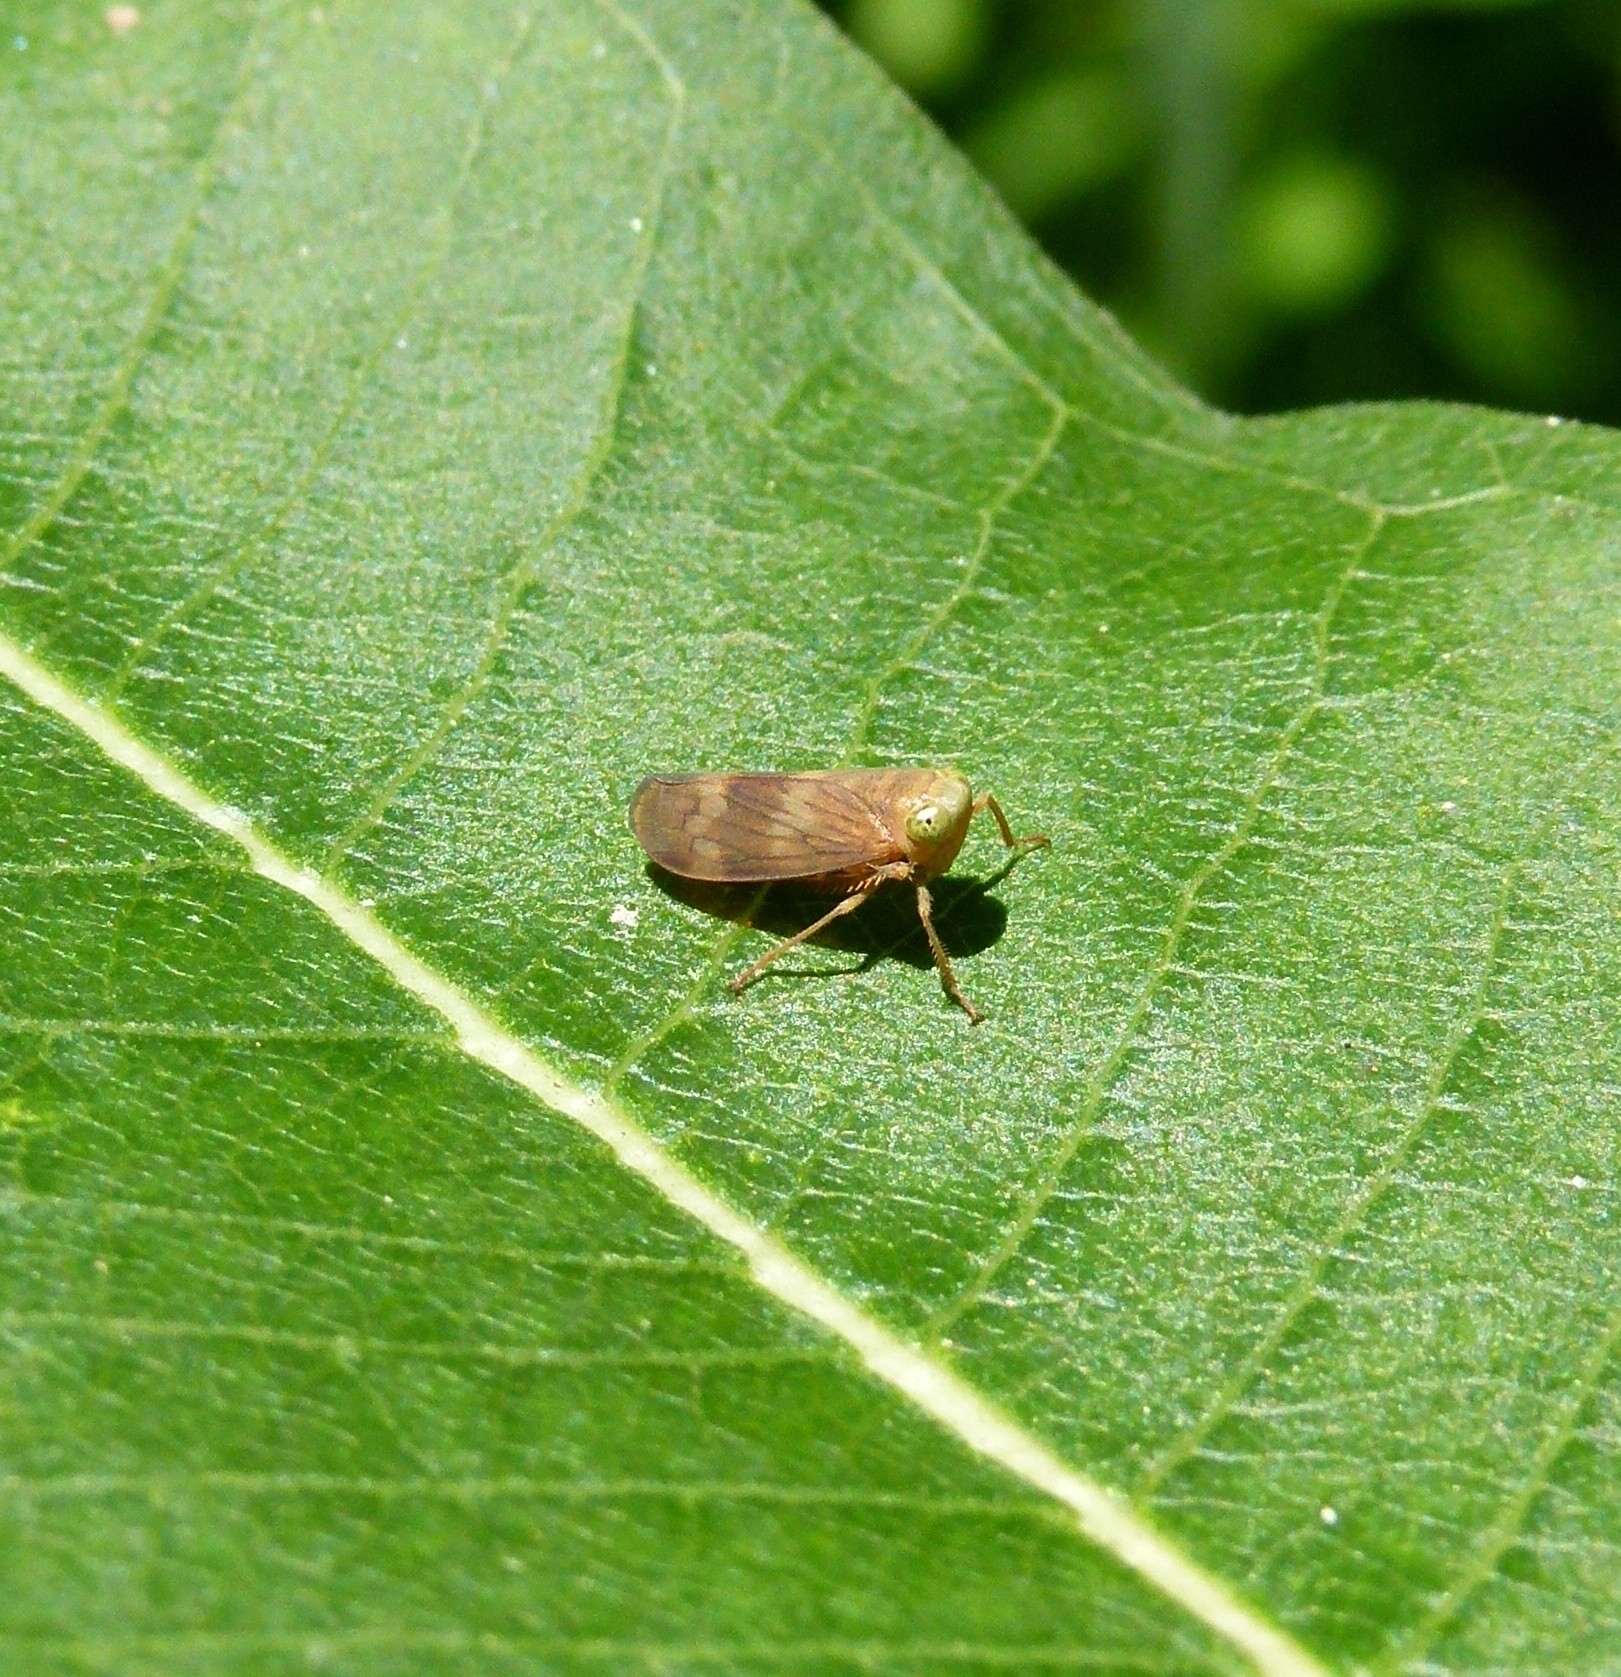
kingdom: Animalia
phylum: Arthropoda
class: Insecta
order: Hemiptera
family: Cicadellidae
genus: Jikradia
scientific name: Jikradia olitoria
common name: Coppery leafhopper
